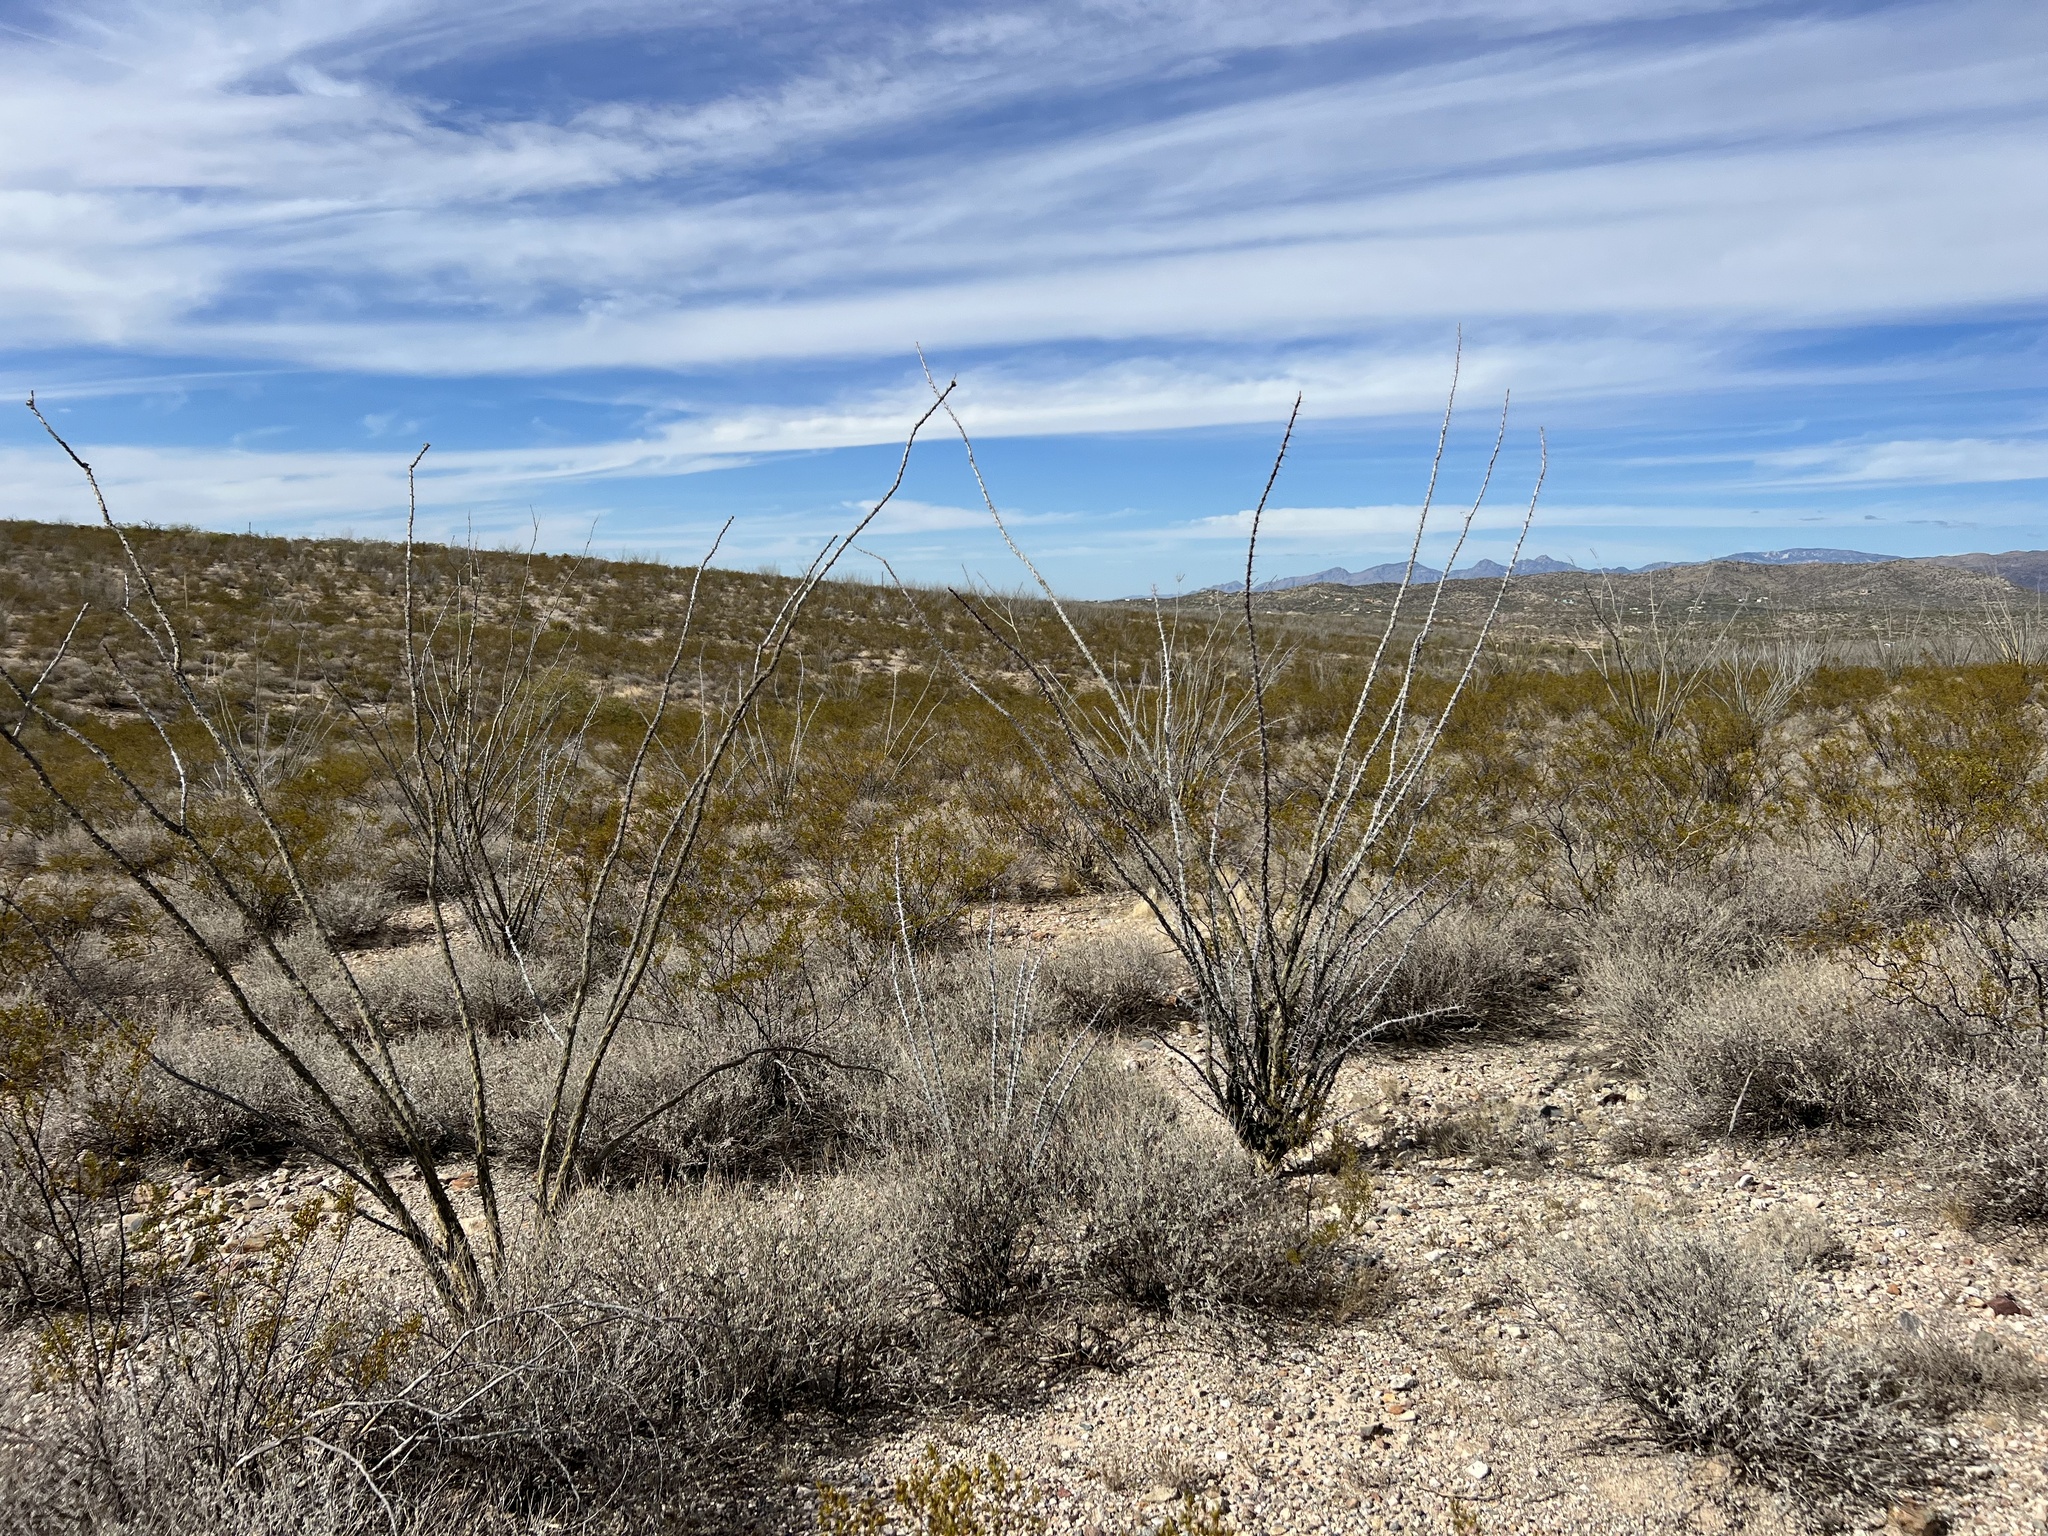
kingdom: Plantae
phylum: Tracheophyta
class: Magnoliopsida
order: Ericales
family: Fouquieriaceae
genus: Fouquieria
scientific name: Fouquieria splendens
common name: Vine-cactus
